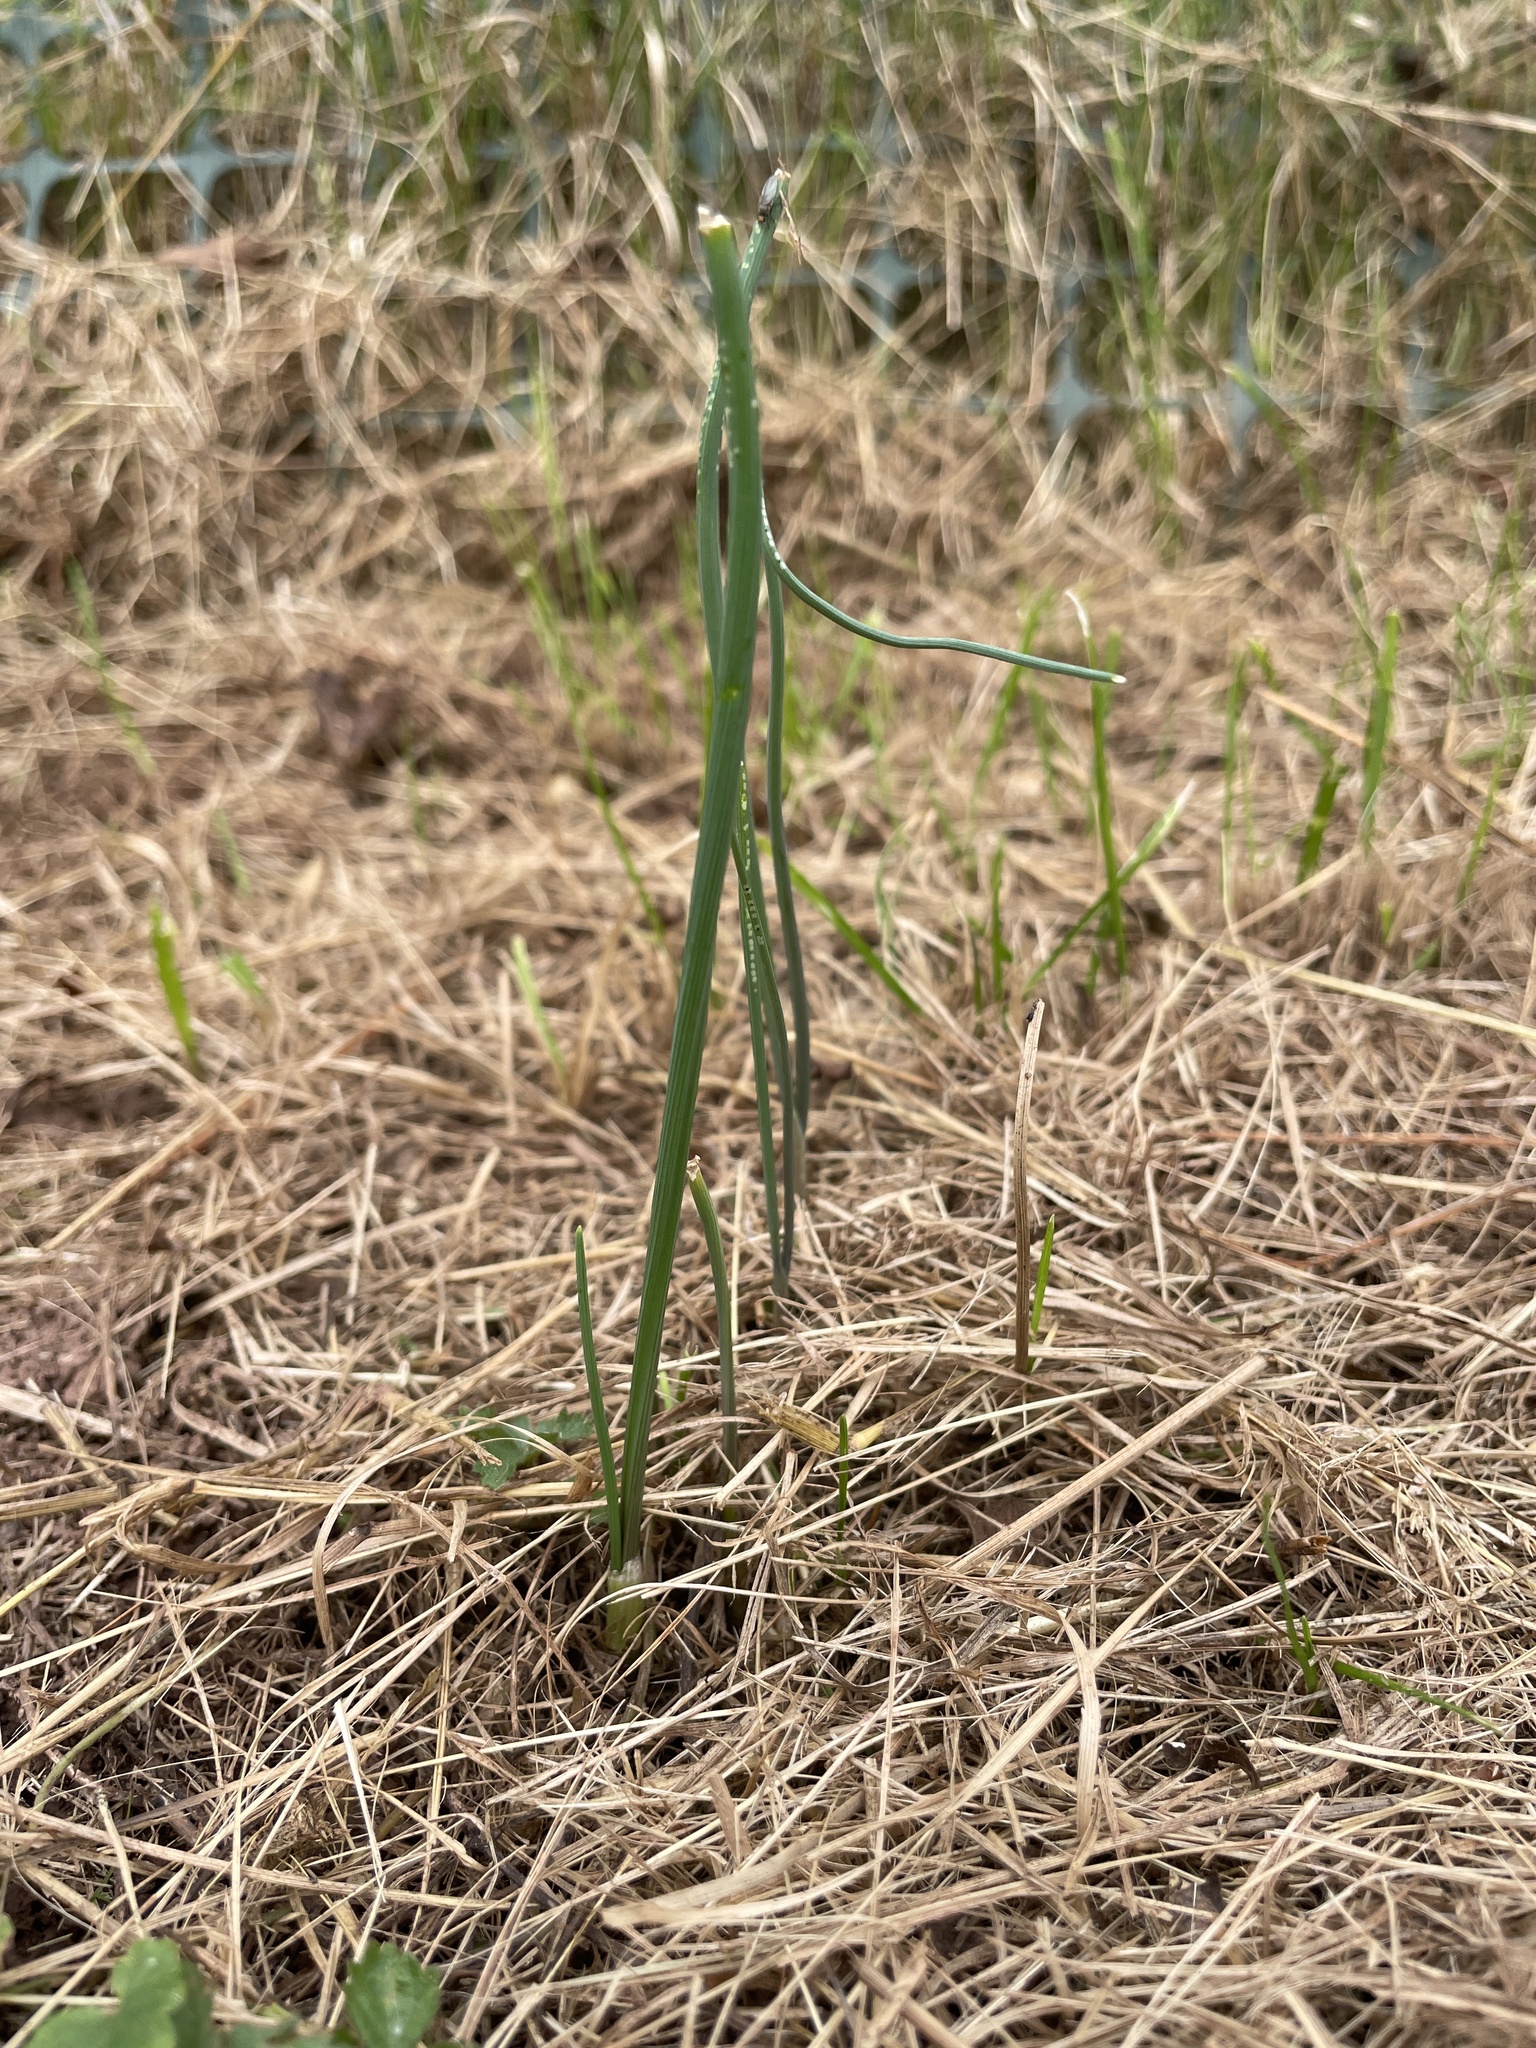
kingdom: Plantae
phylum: Tracheophyta
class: Liliopsida
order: Asparagales
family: Amaryllidaceae
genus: Allium
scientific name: Allium vineale
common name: Crow garlic
